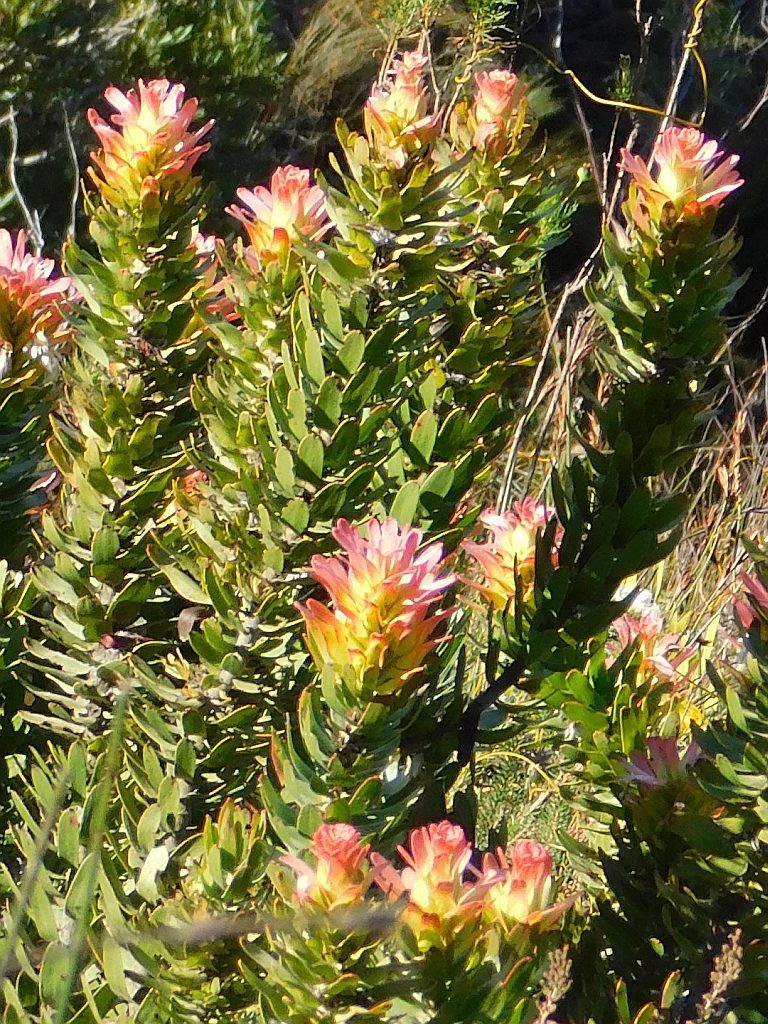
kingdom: Plantae
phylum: Tracheophyta
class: Magnoliopsida
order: Proteales
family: Proteaceae
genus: Mimetes
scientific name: Mimetes cucullatus
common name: Common pagoda
